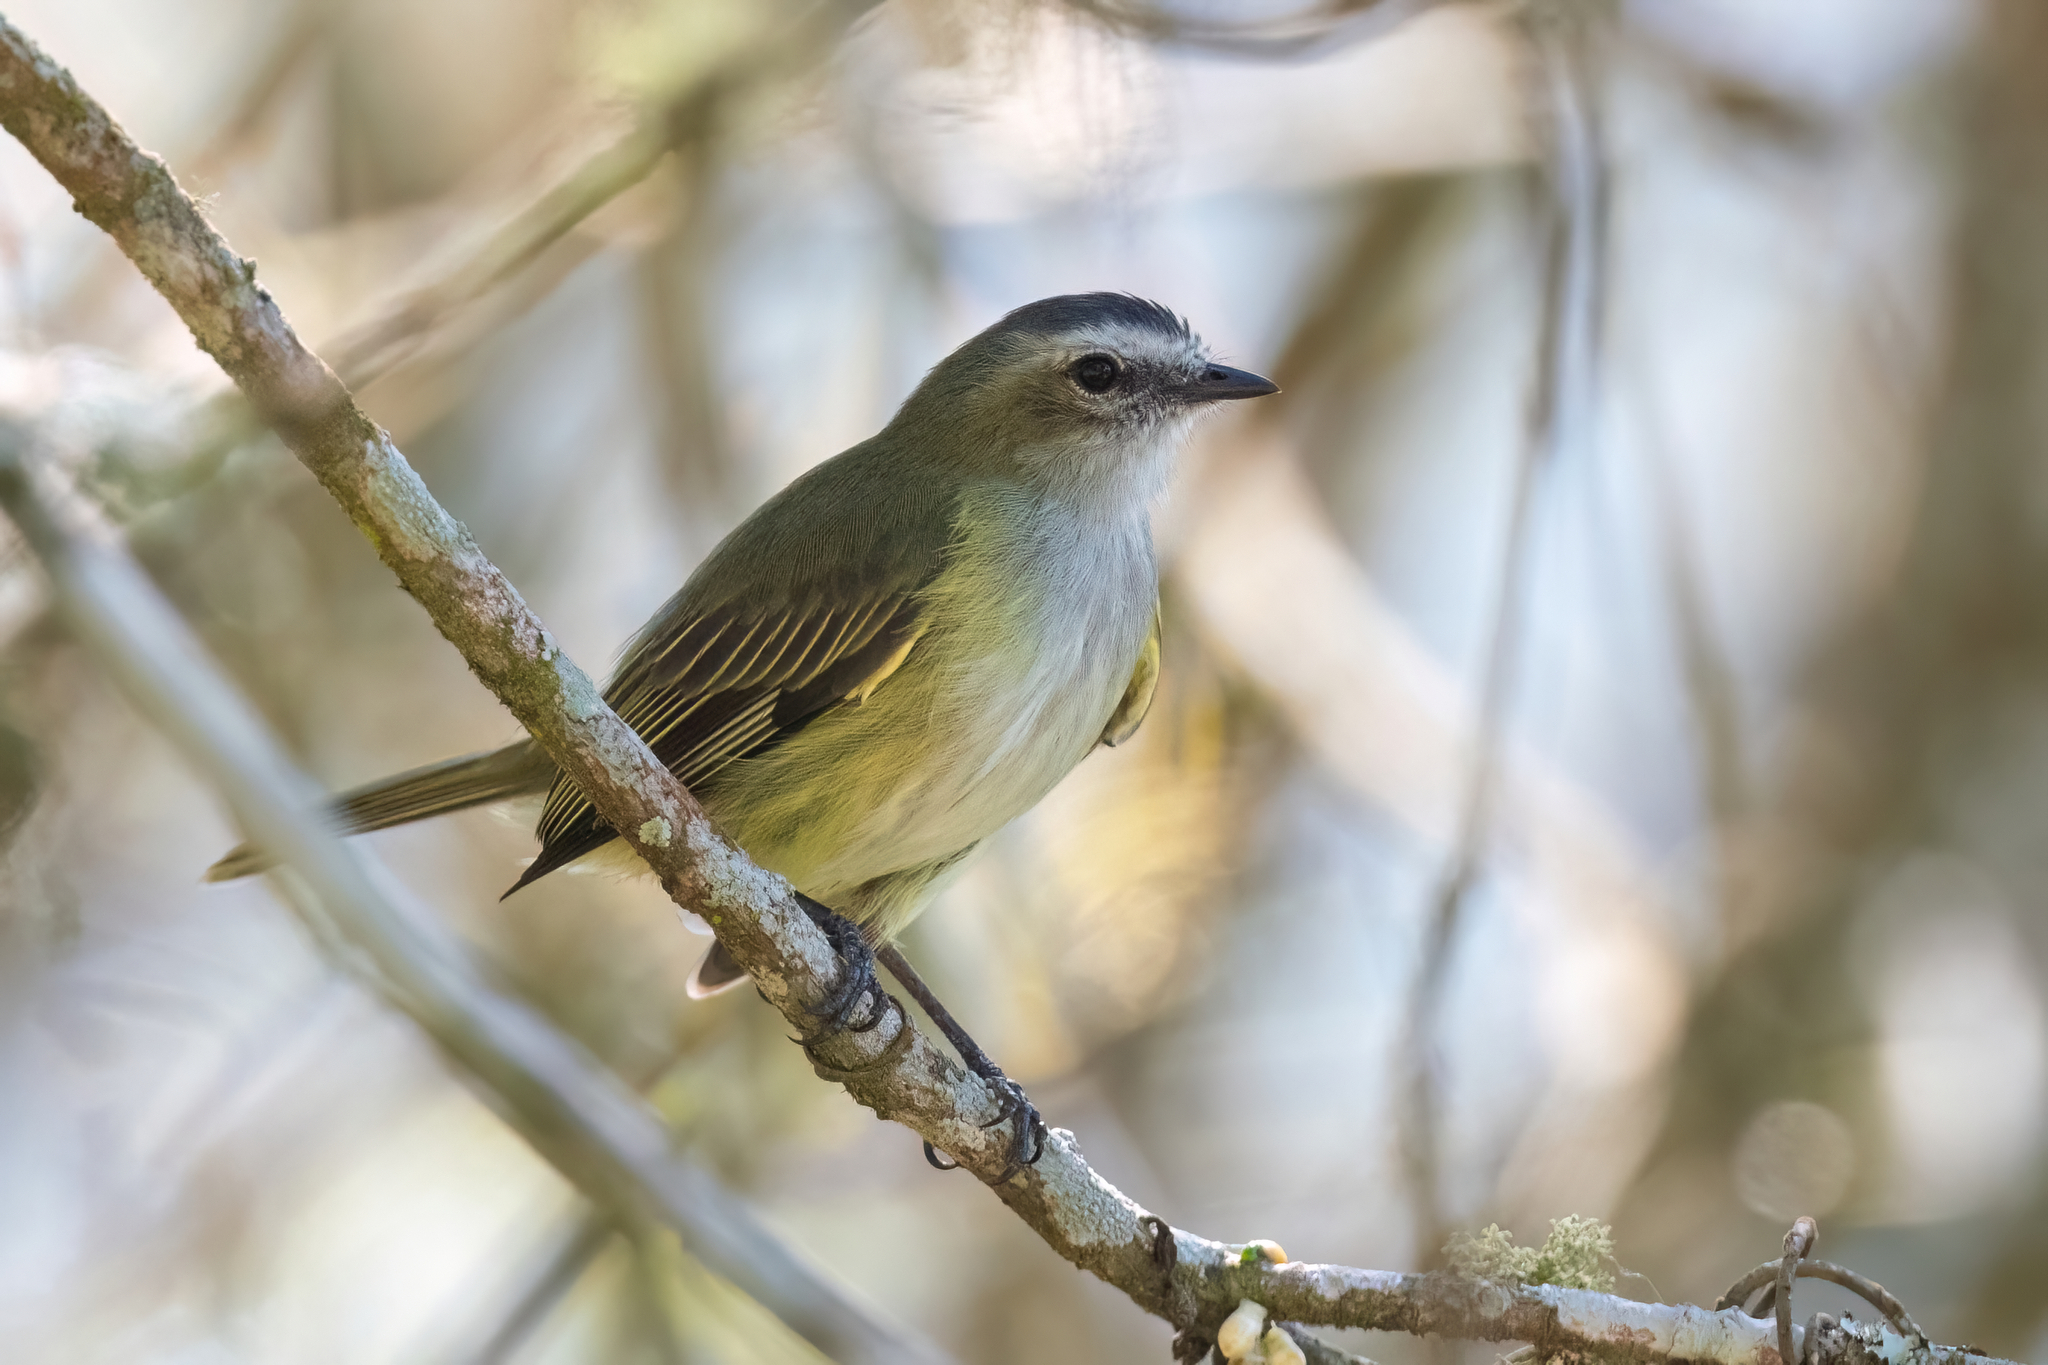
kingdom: Animalia
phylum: Chordata
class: Aves
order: Passeriformes
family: Tyrannidae
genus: Zimmerius
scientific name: Zimmerius vilissimus
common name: Paltry tyrannulet
